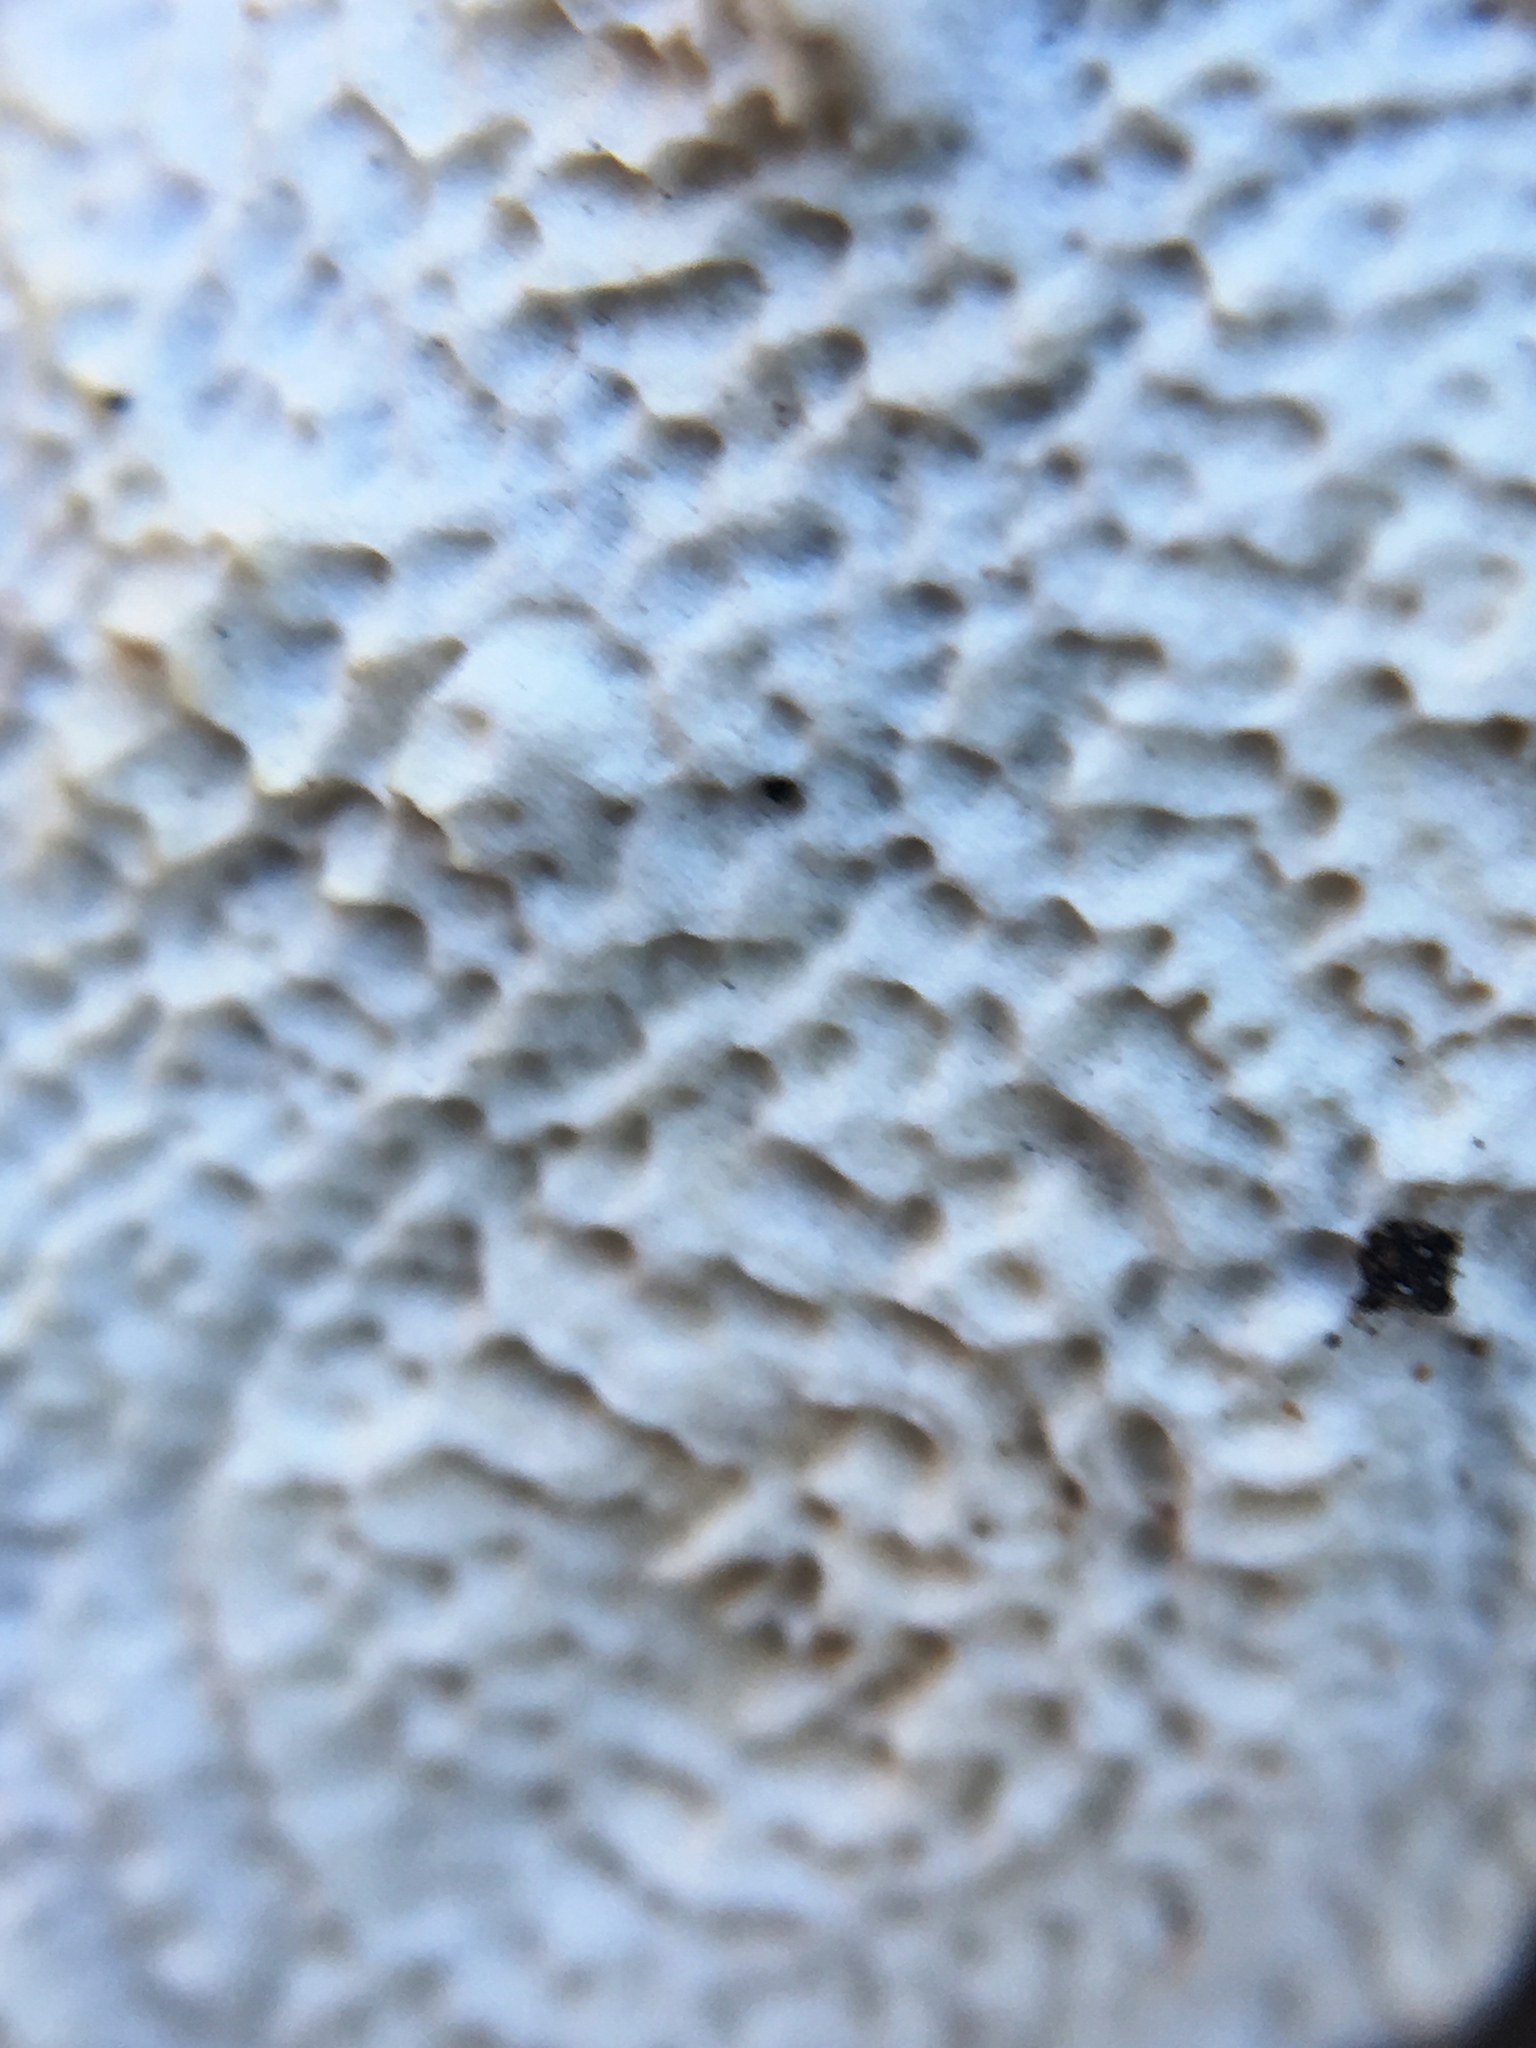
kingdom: Fungi
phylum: Basidiomycota
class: Agaricomycetes
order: Polyporales
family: Irpicaceae
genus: Byssomerulius
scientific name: Byssomerulius corium
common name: Netted crust
